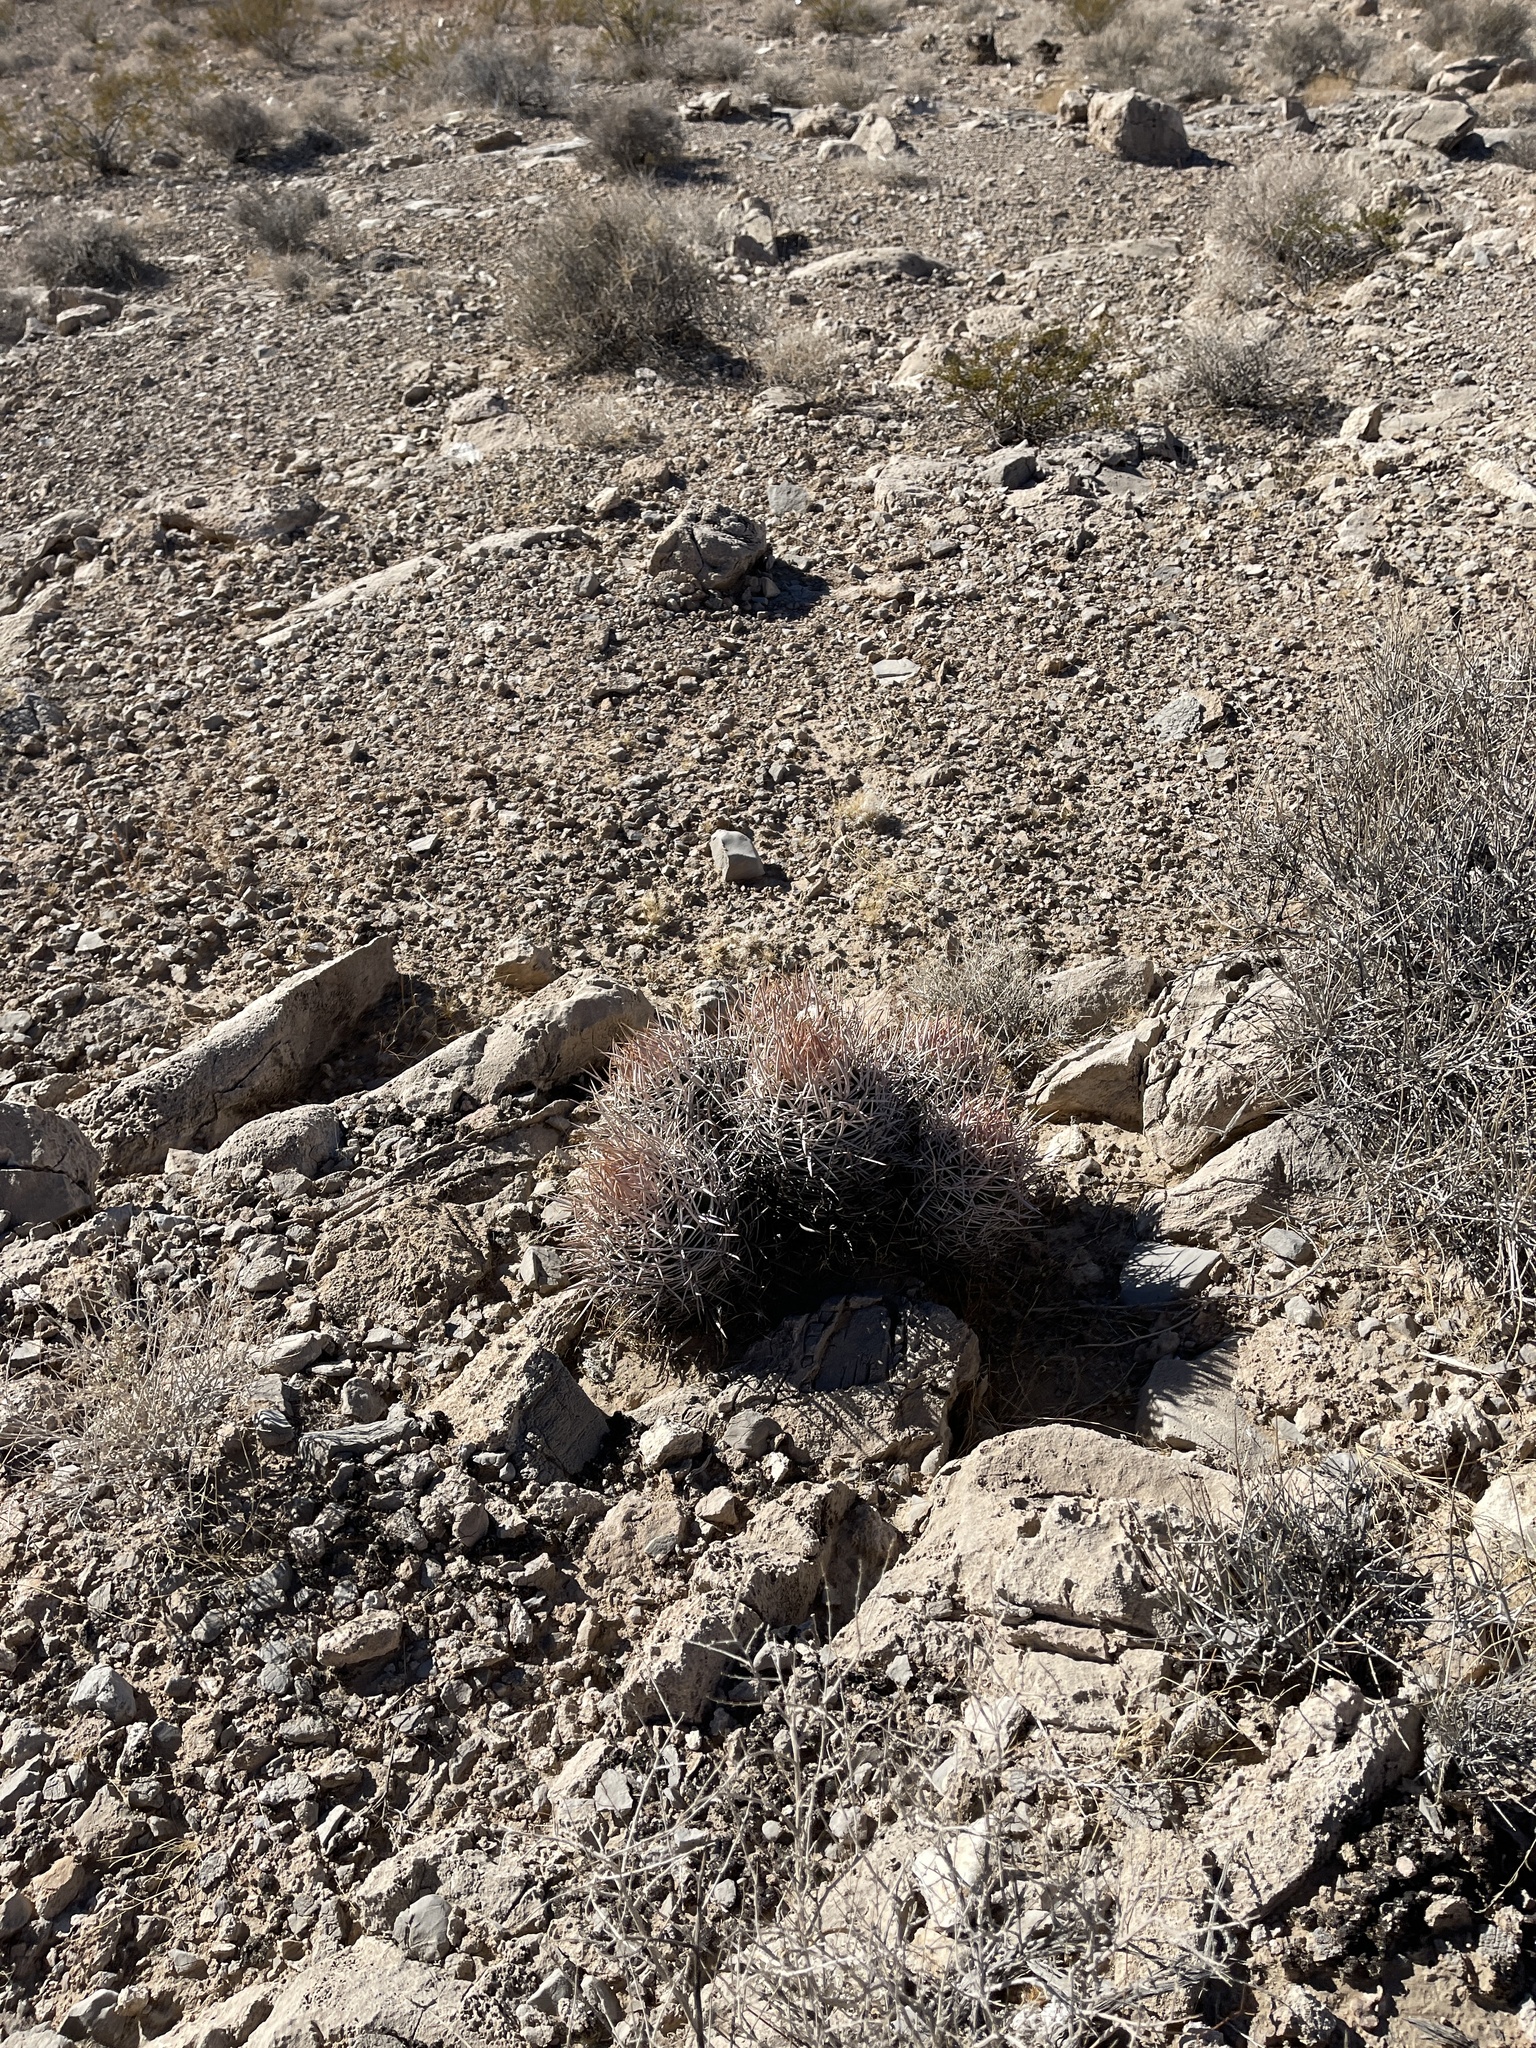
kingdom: Plantae
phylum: Tracheophyta
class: Magnoliopsida
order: Caryophyllales
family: Cactaceae
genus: Echinocactus
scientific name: Echinocactus polycephalus
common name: Cottontop cactus
